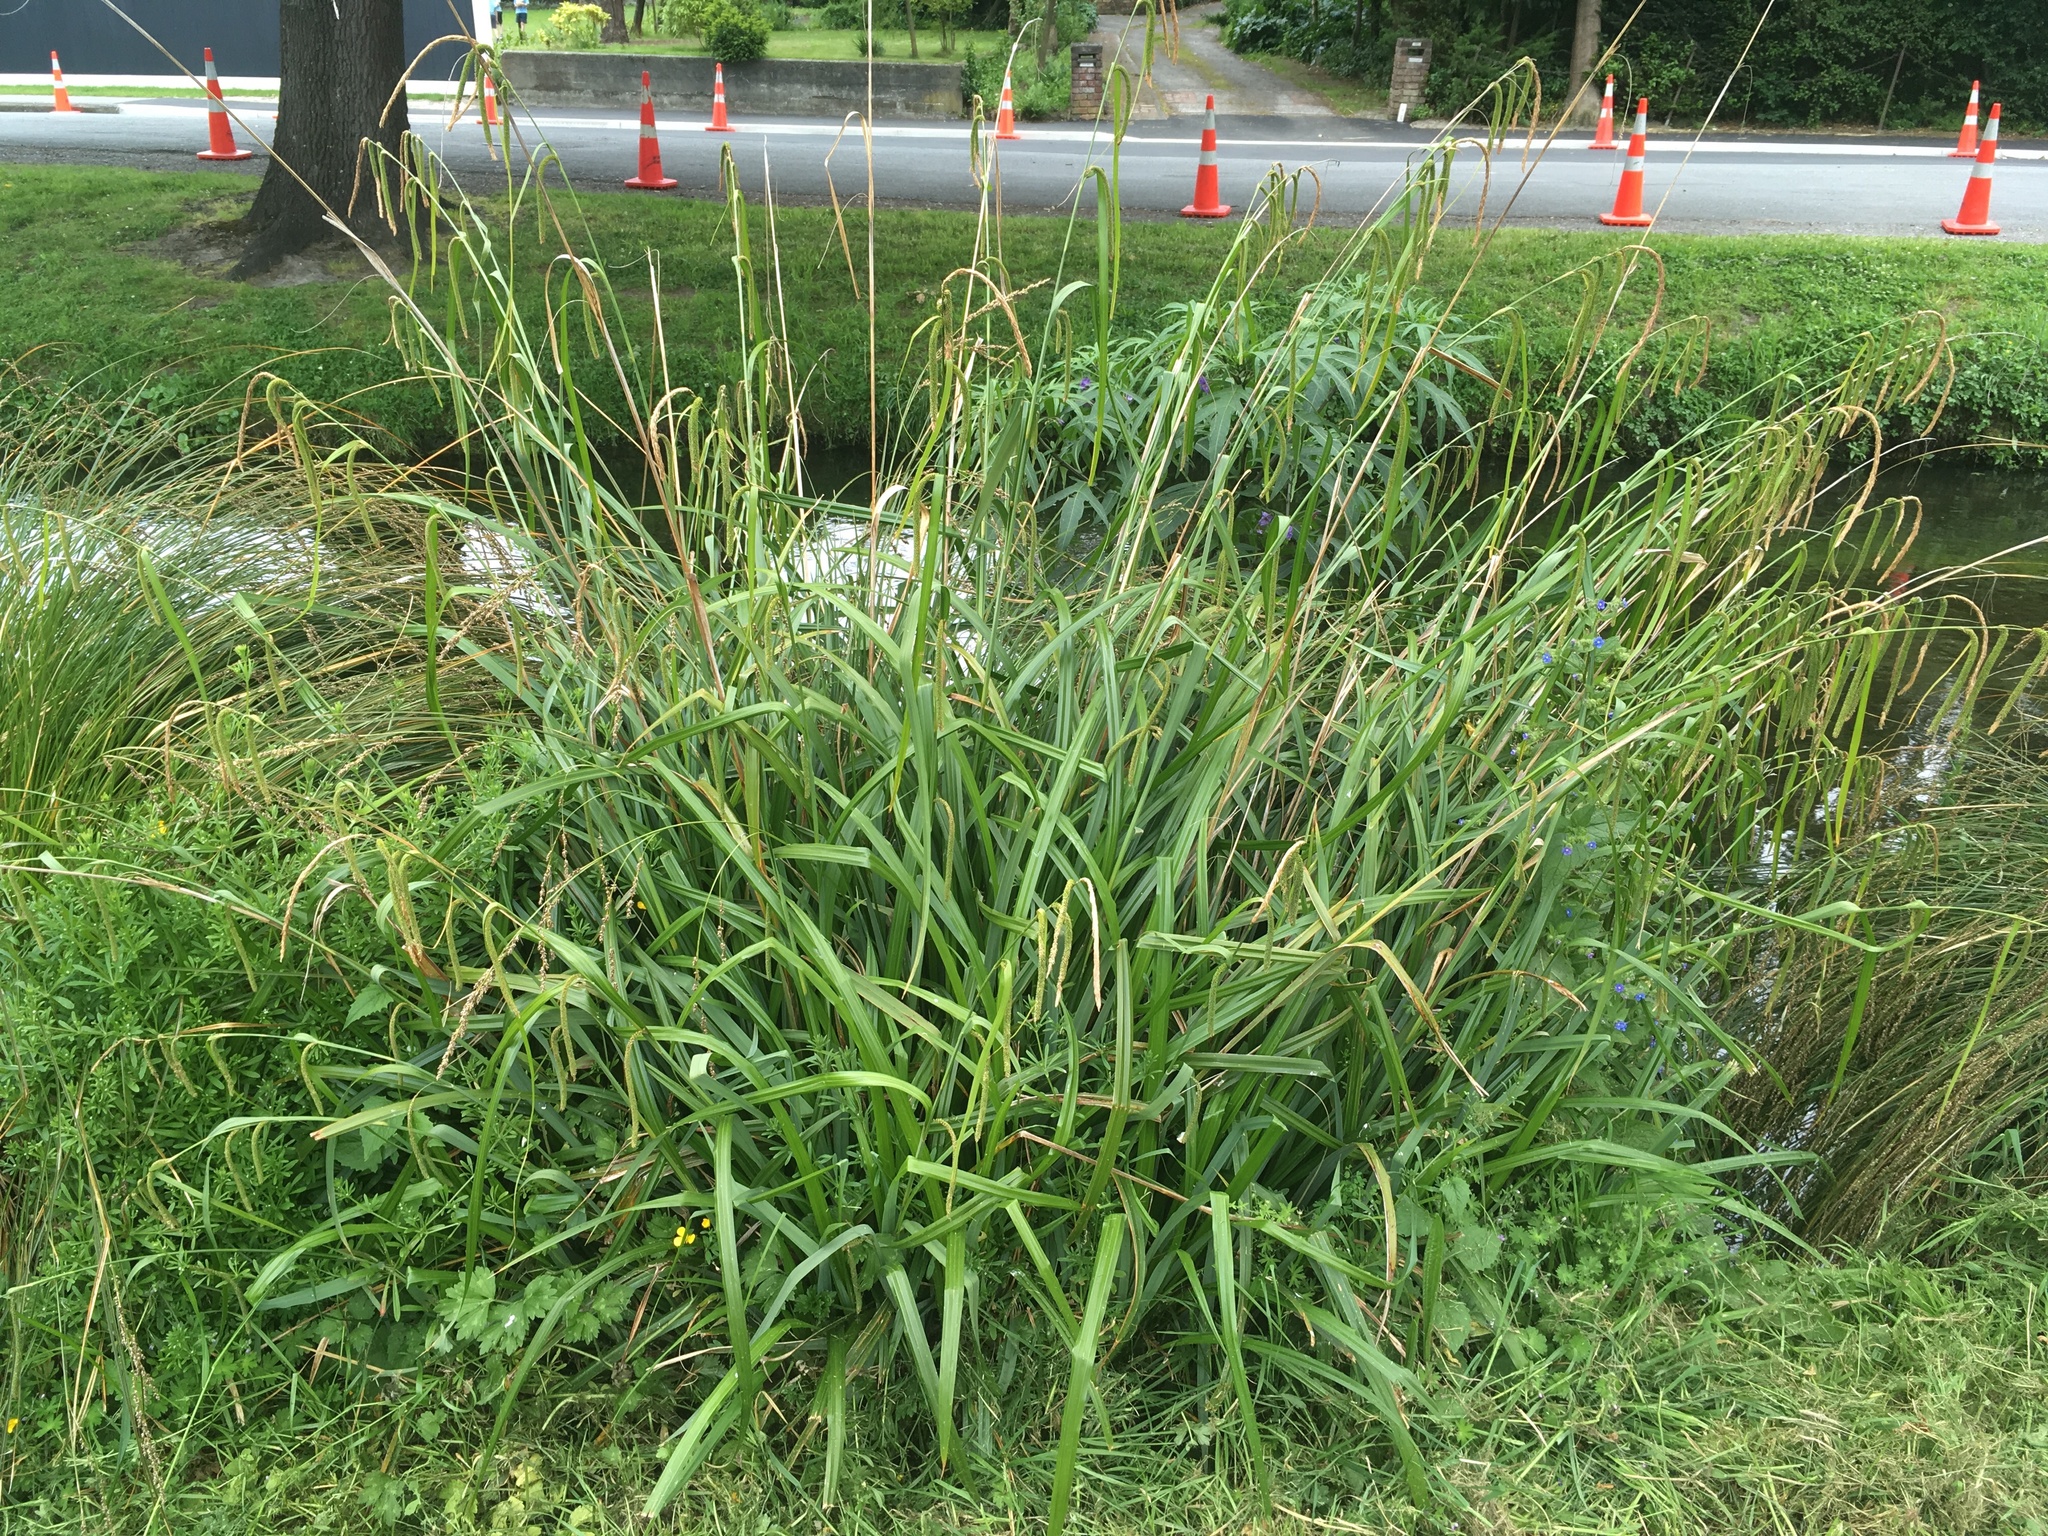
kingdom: Plantae
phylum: Tracheophyta
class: Liliopsida
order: Poales
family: Cyperaceae
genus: Carex
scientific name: Carex pendula
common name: Pendulous sedge
